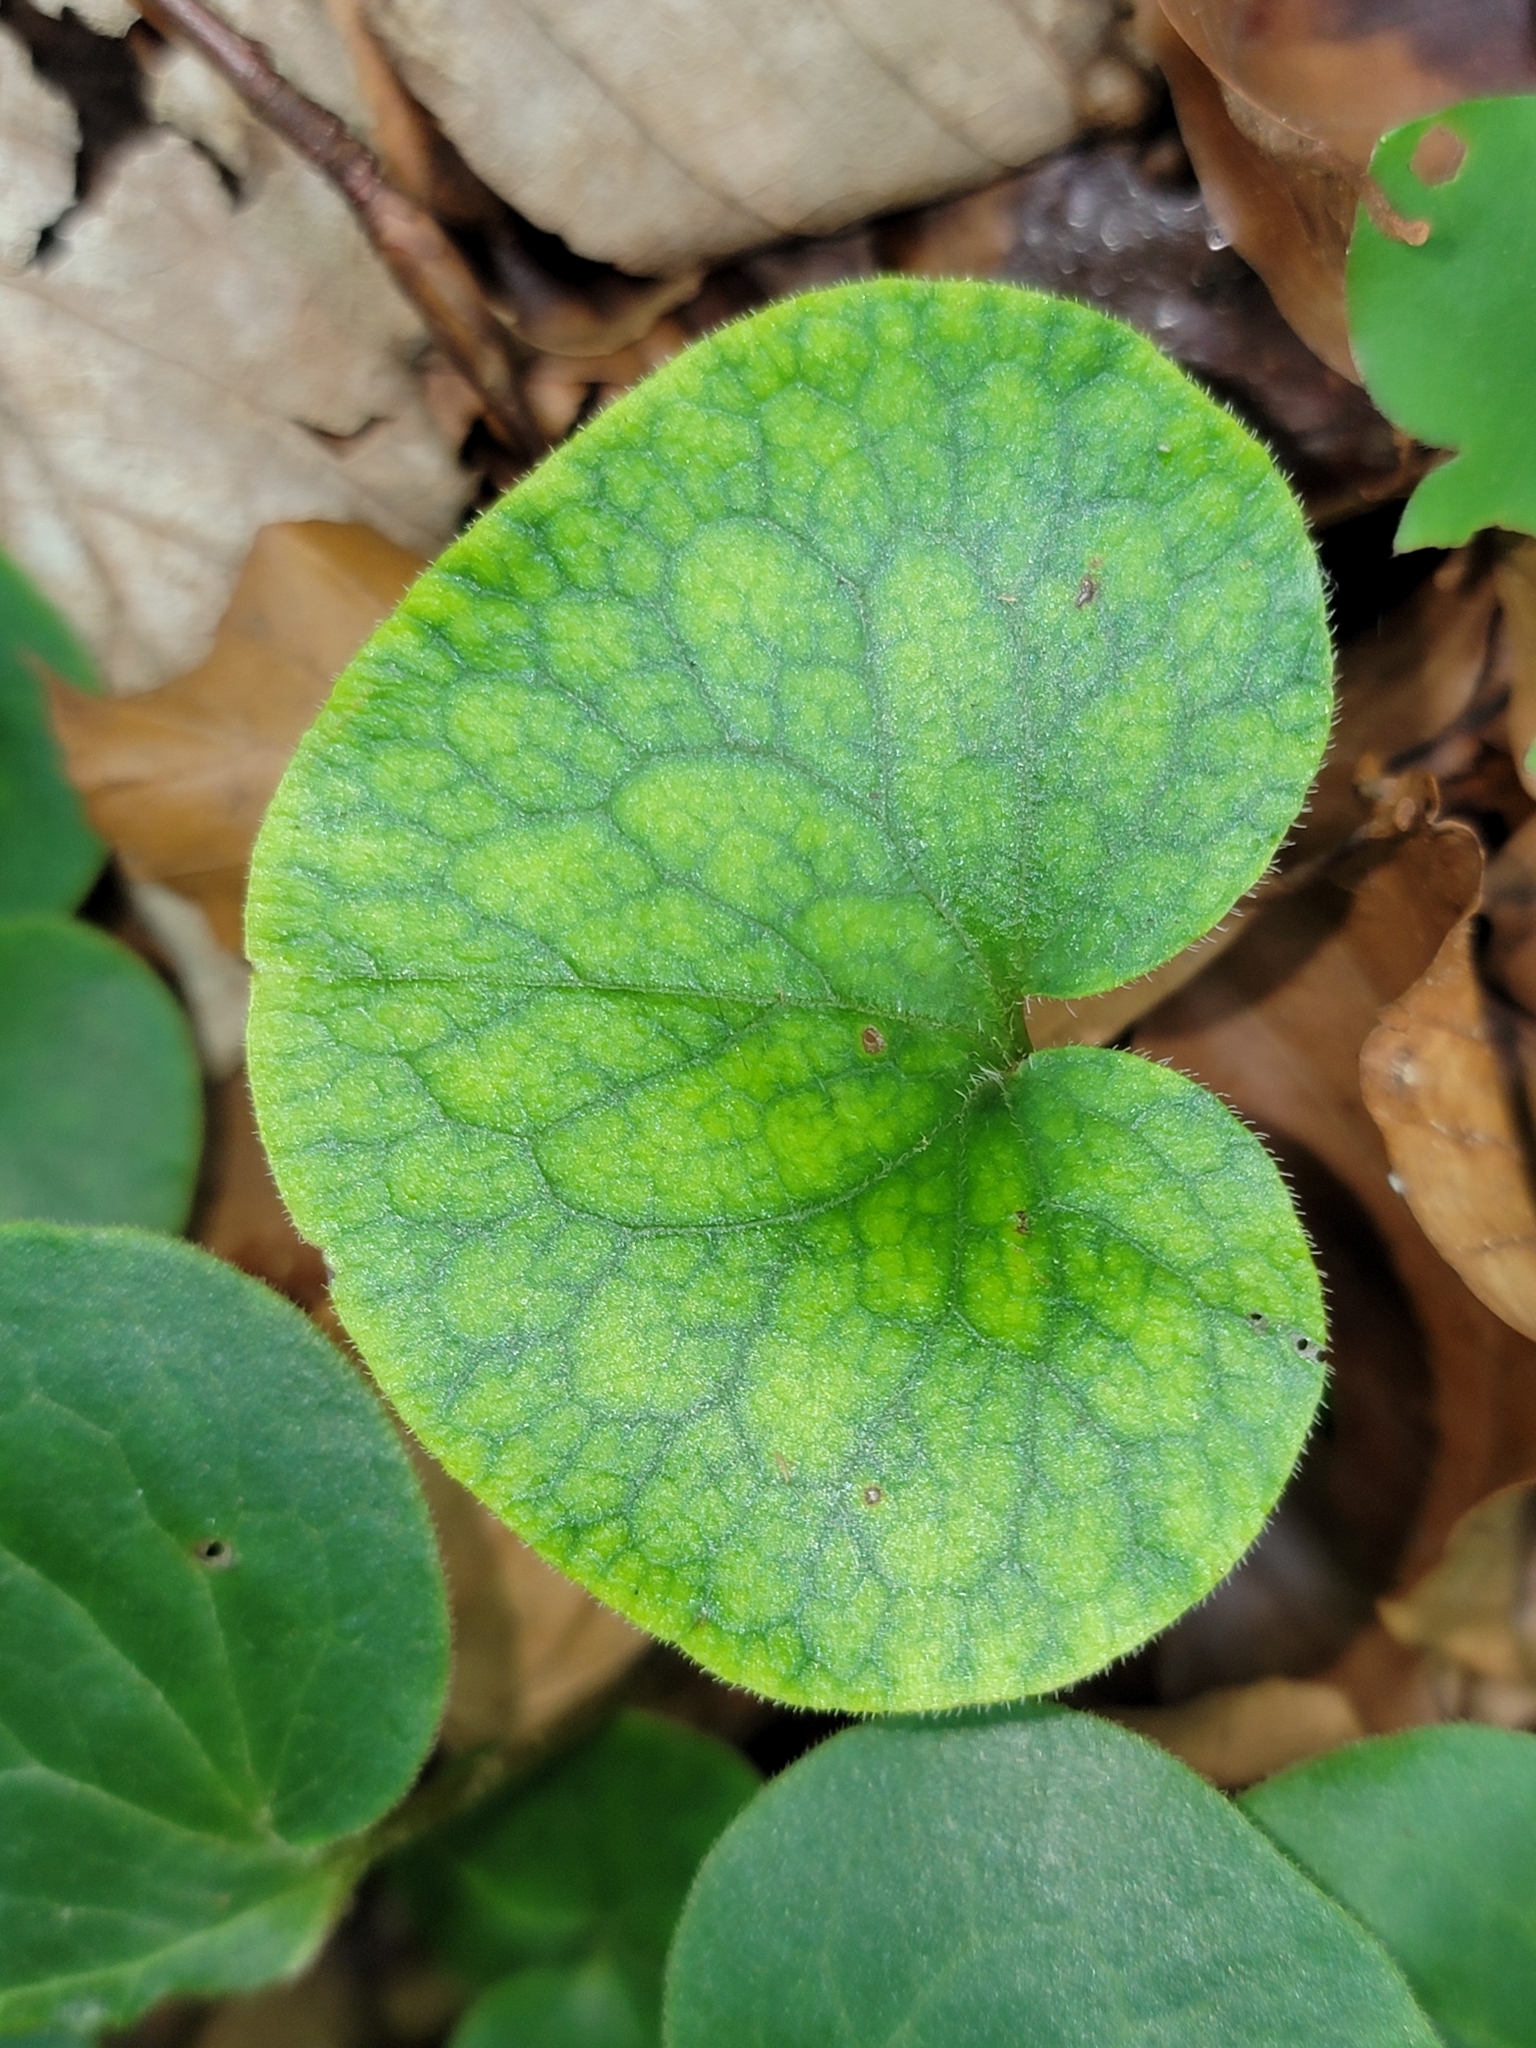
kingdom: Plantae
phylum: Tracheophyta
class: Magnoliopsida
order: Piperales
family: Aristolochiaceae
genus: Asarum
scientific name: Asarum europaeum
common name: Asarabacca
